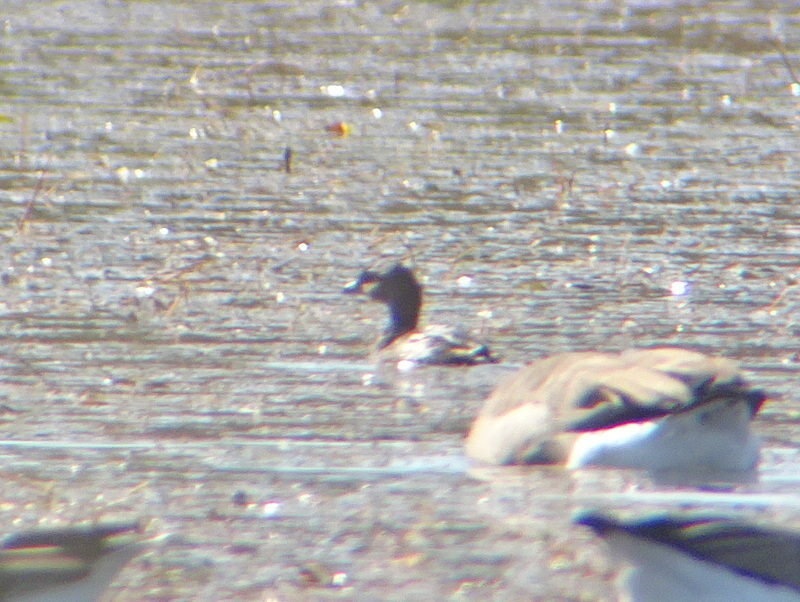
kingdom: Animalia
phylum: Chordata
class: Aves
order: Podicipediformes
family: Podicipedidae
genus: Podilymbus
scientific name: Podilymbus podiceps
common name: Pied-billed grebe
